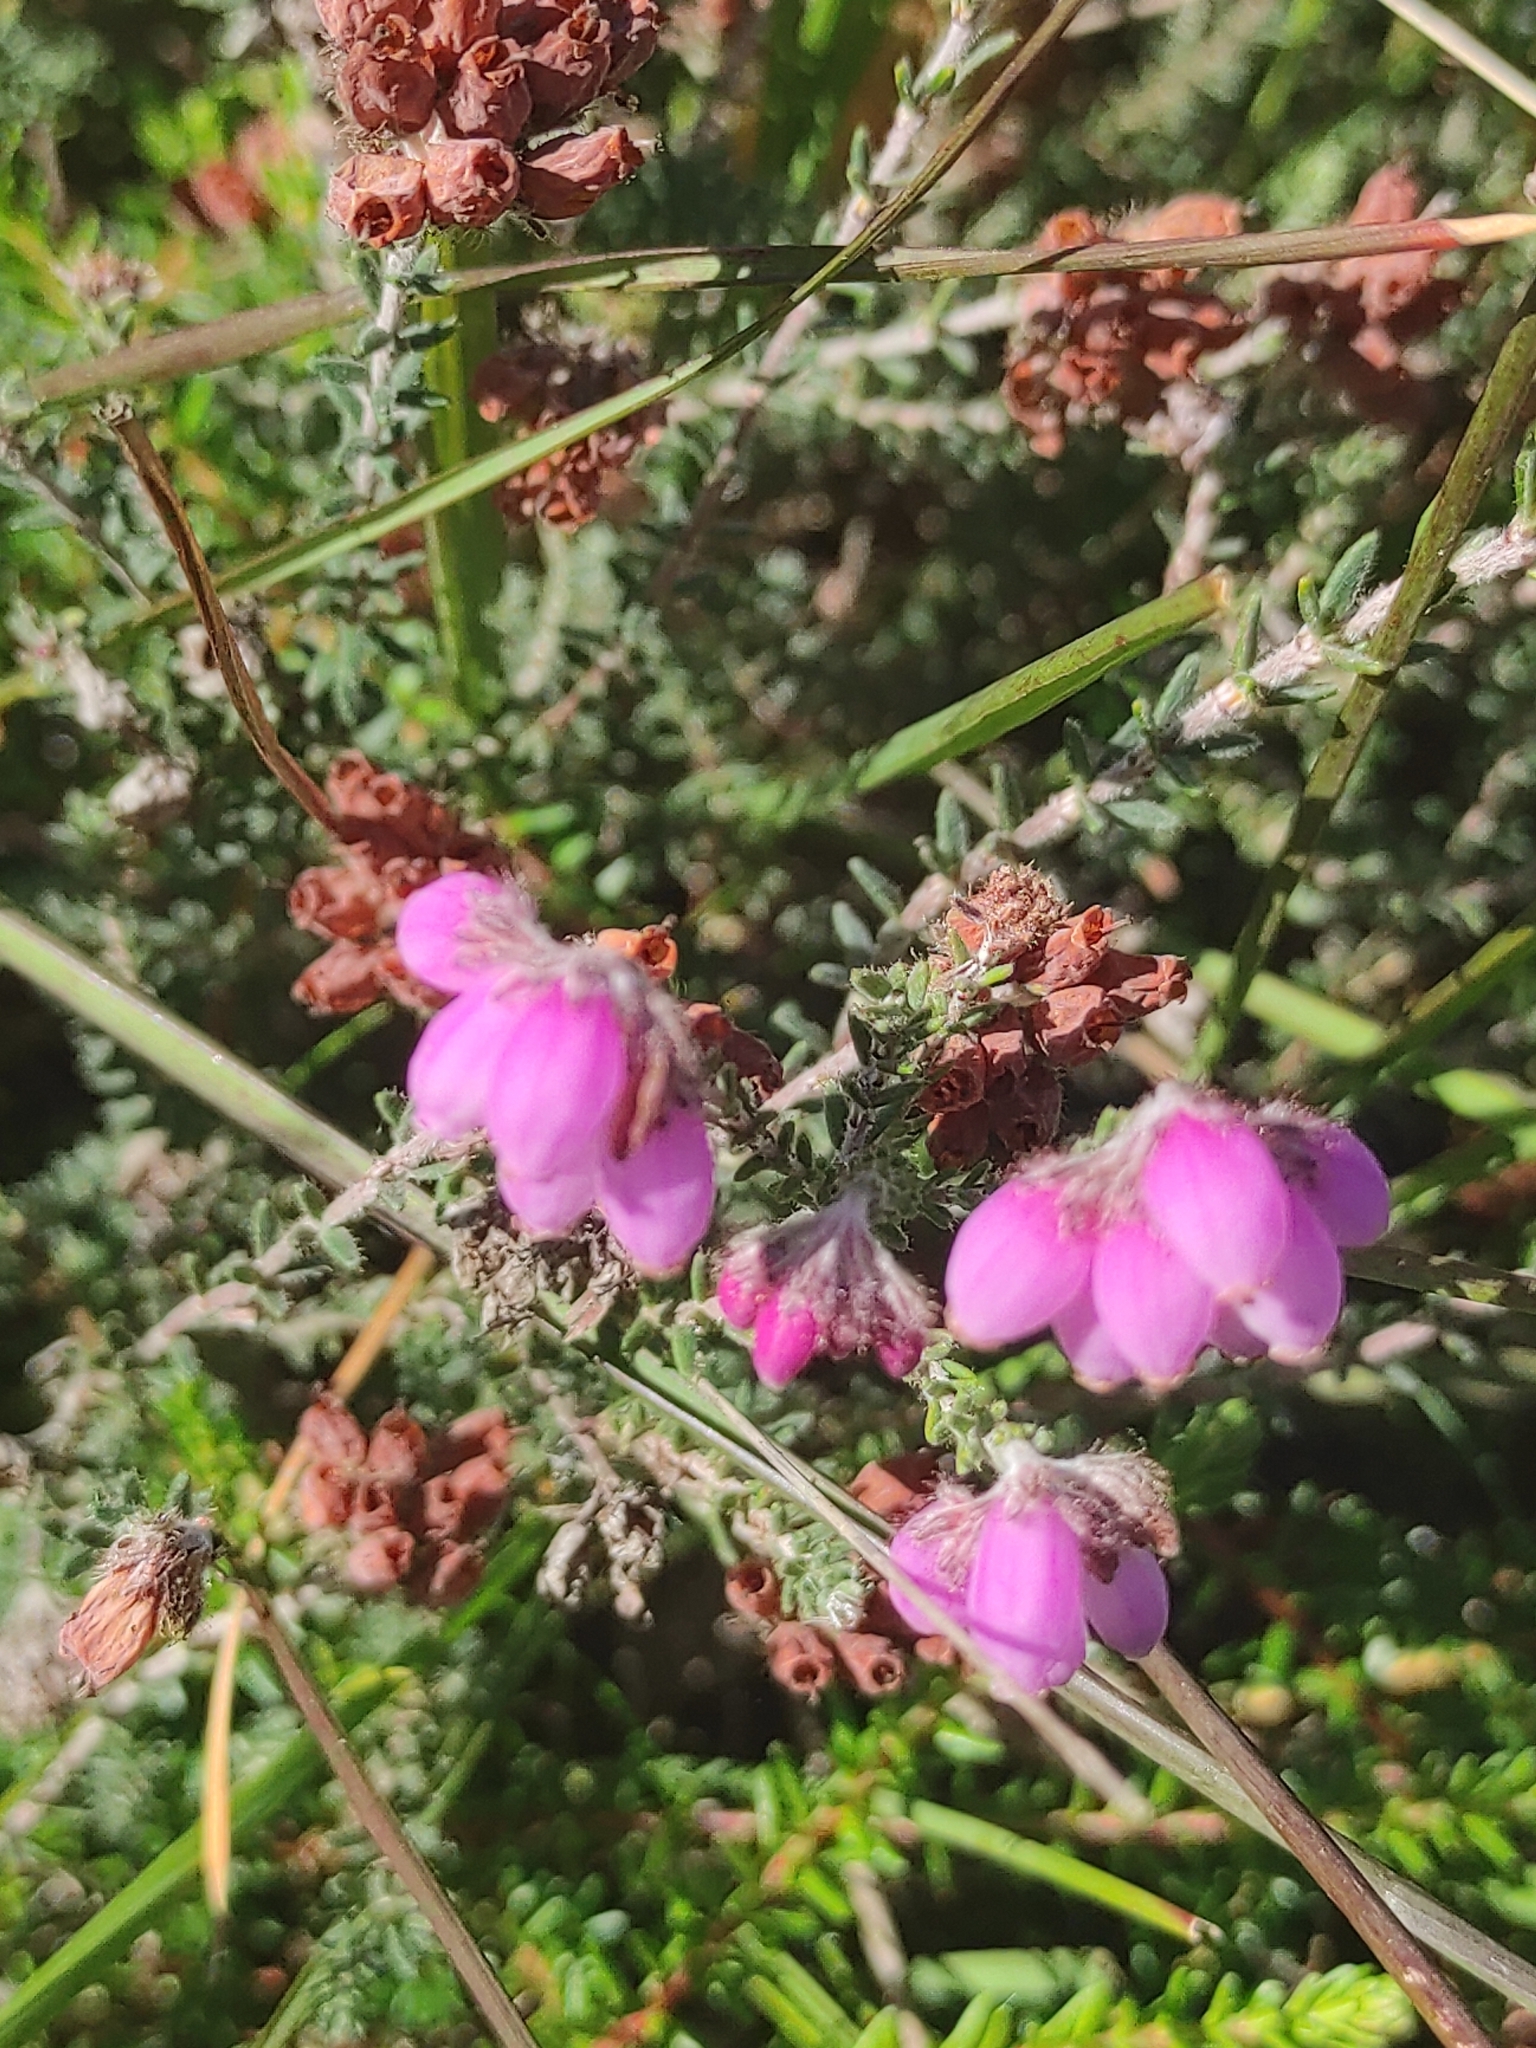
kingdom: Plantae
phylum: Tracheophyta
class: Magnoliopsida
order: Ericales
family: Ericaceae
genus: Erica
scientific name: Erica tetralix
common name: Cross-leaved heath
